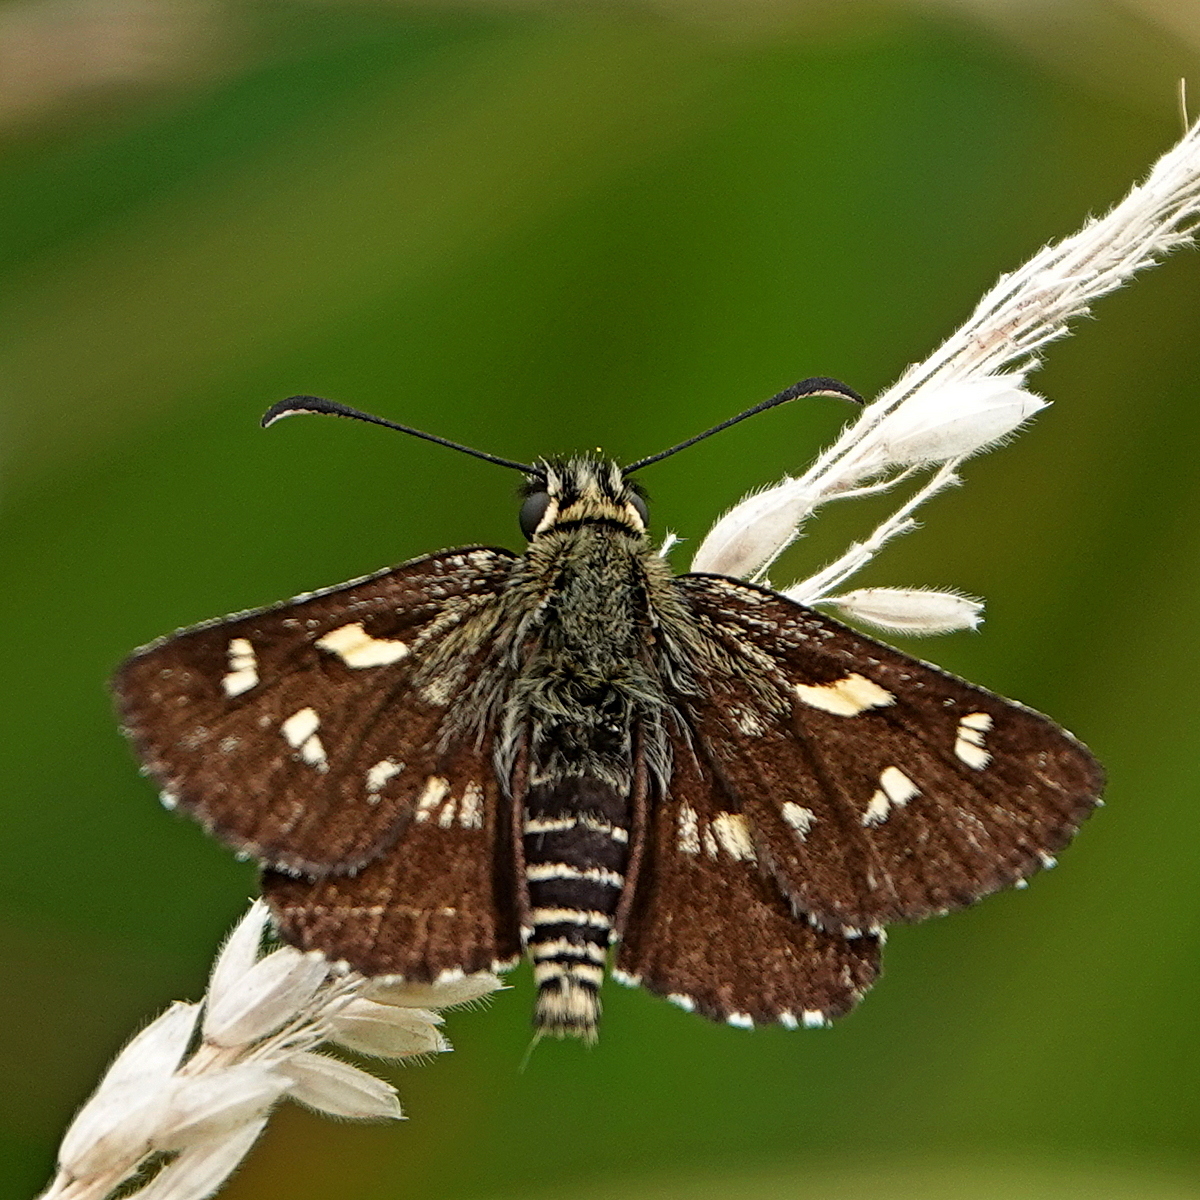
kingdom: Animalia
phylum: Arthropoda
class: Insecta
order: Lepidoptera
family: Hesperiidae
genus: Oreisplanus
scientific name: Oreisplanus munionga
